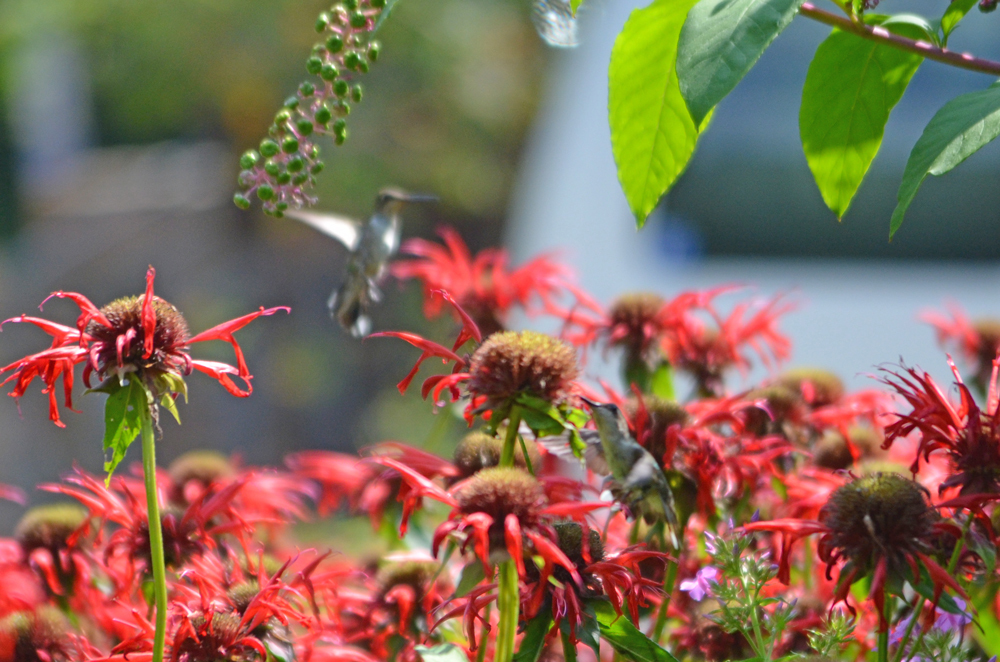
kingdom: Animalia
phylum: Chordata
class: Aves
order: Apodiformes
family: Trochilidae
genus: Archilochus
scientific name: Archilochus colubris
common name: Ruby-throated hummingbird
